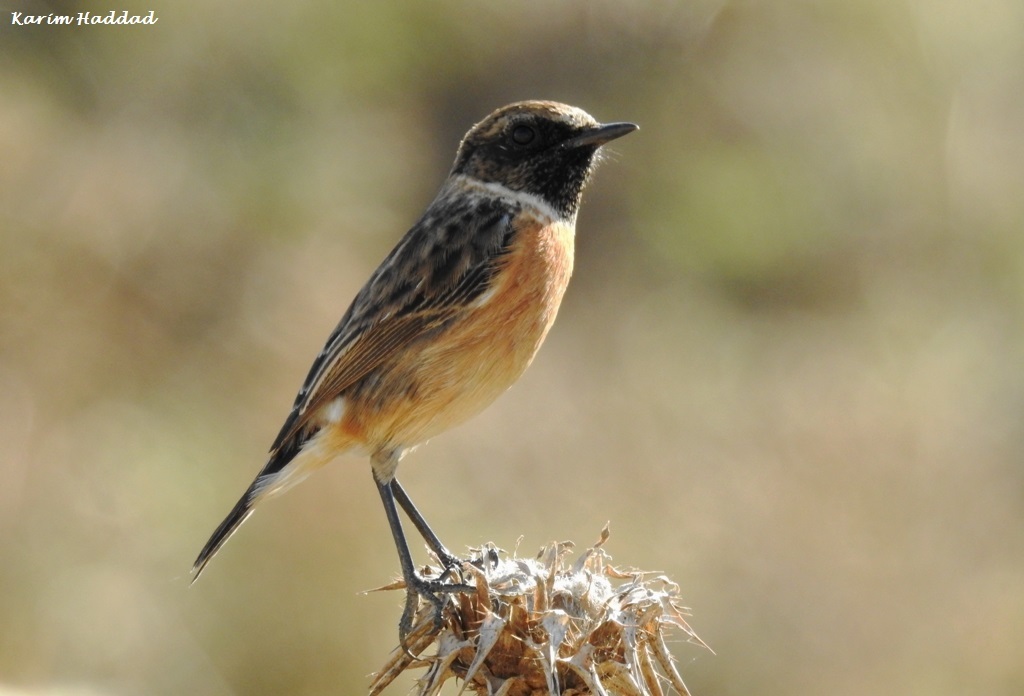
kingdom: Animalia
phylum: Chordata
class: Aves
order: Passeriformes
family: Muscicapidae
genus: Saxicola
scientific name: Saxicola rubicola
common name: European stonechat
